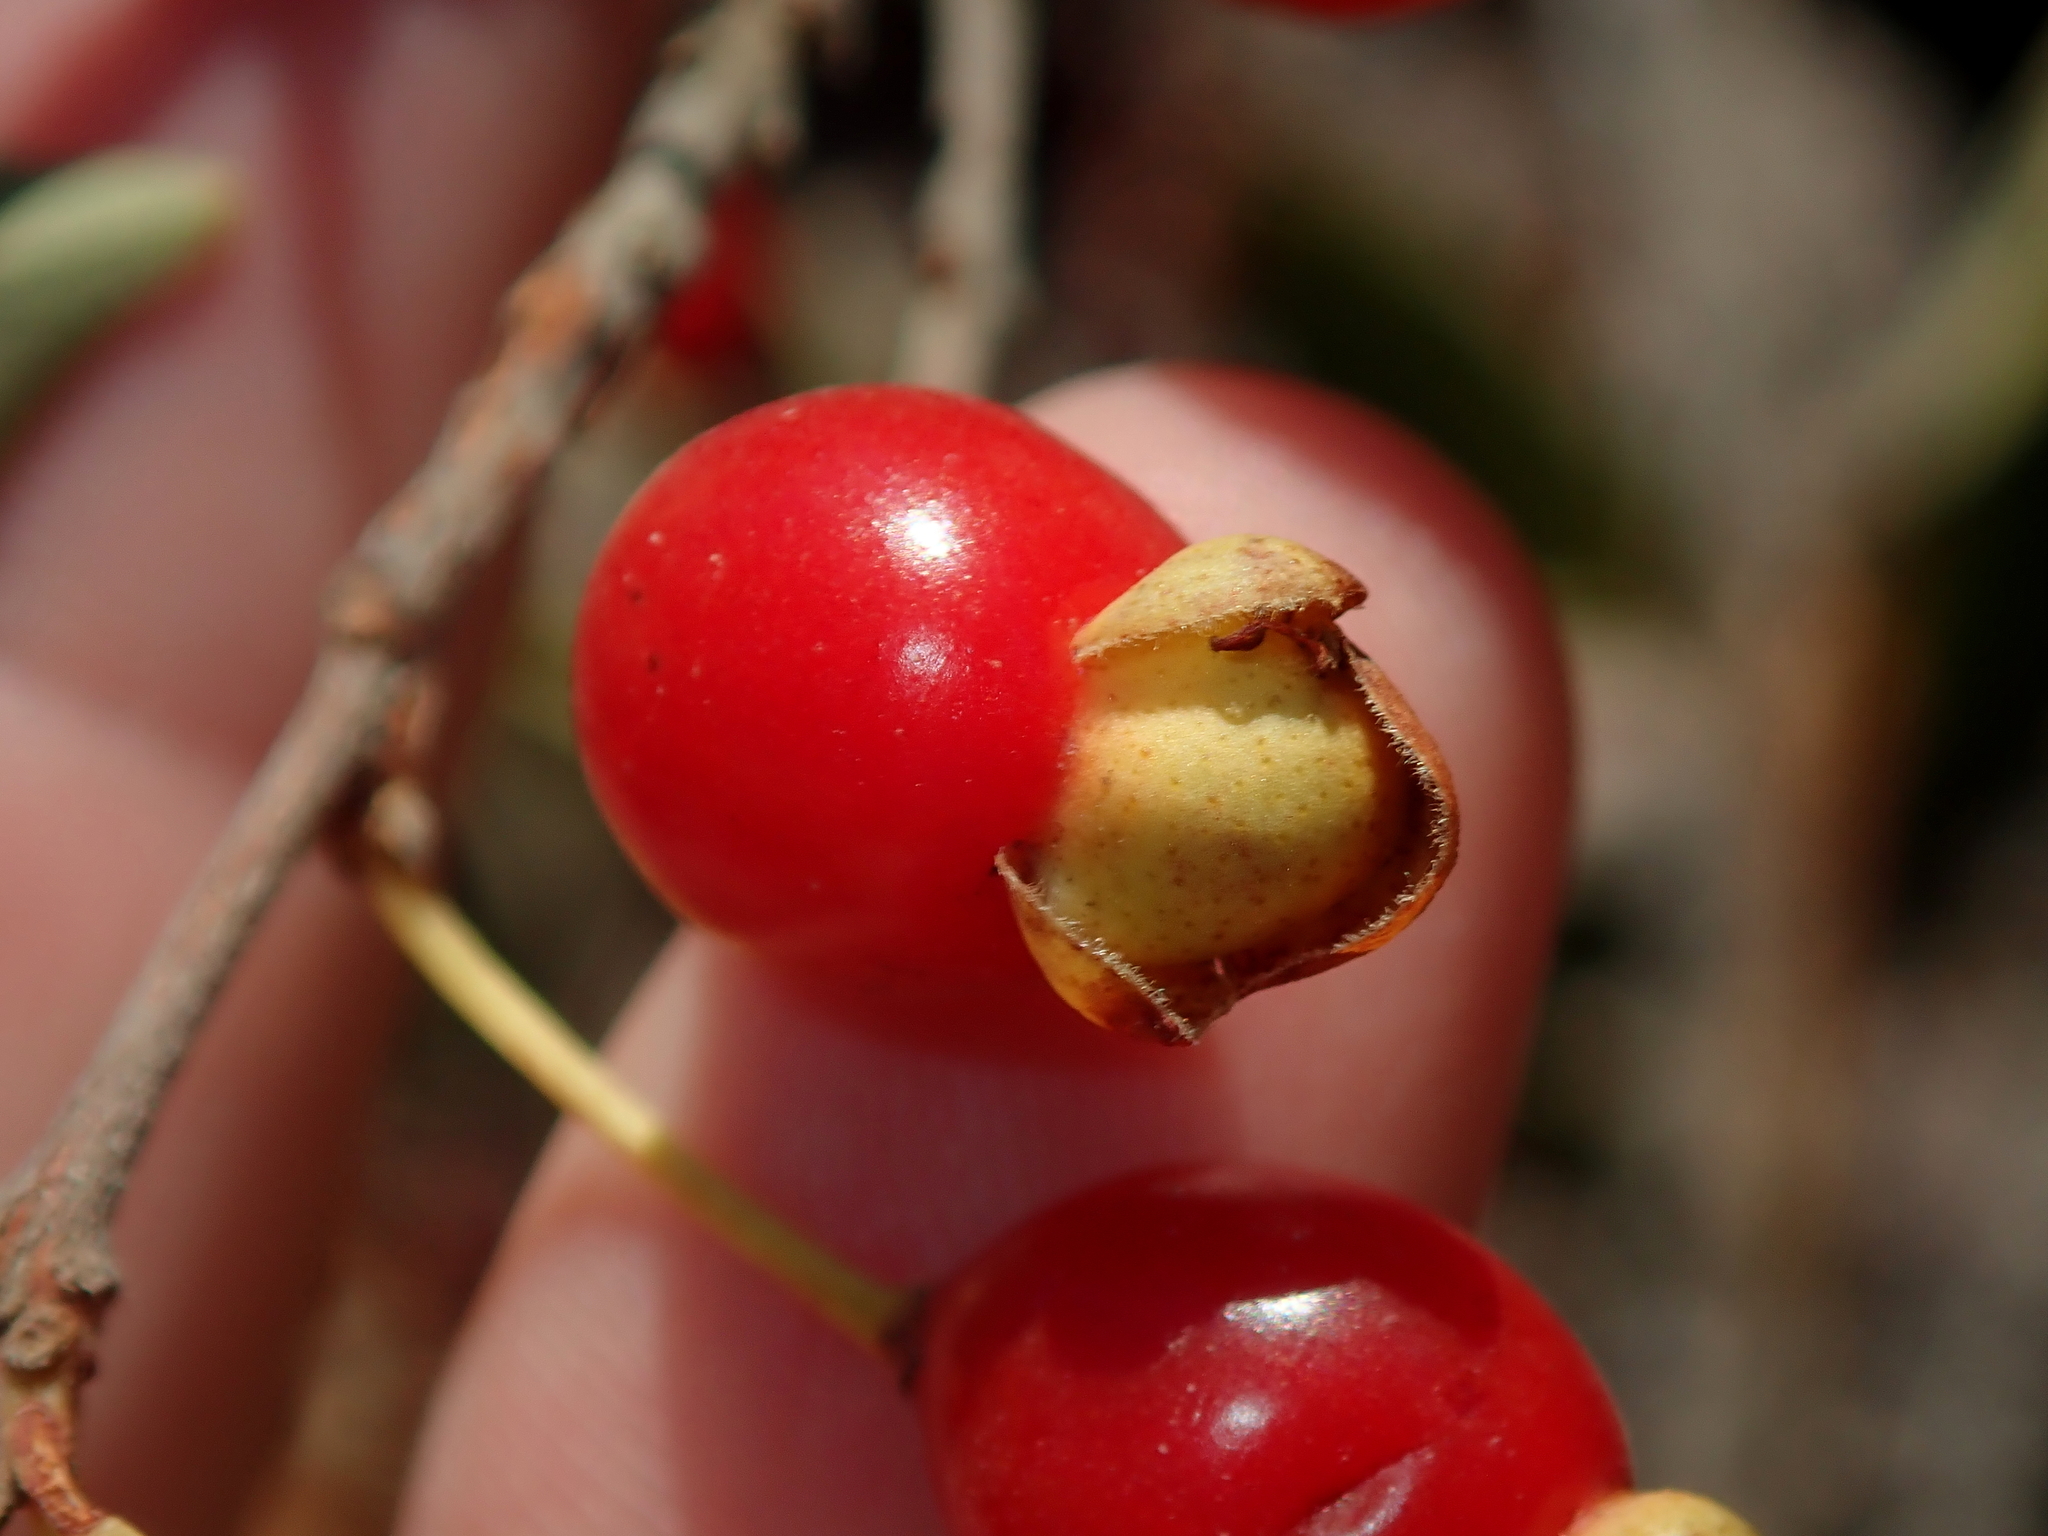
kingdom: Plantae
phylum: Tracheophyta
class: Magnoliopsida
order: Myrtales
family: Myrtaceae
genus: Eugenia
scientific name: Eugenia punicifolia
